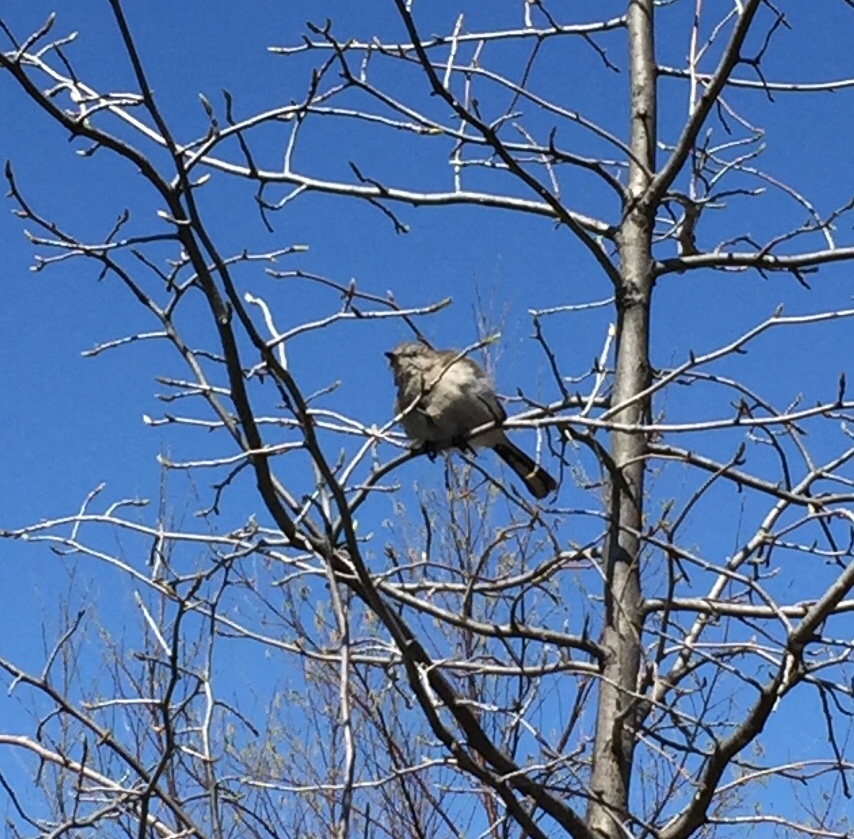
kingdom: Animalia
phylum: Chordata
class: Aves
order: Passeriformes
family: Mimidae
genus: Mimus
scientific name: Mimus polyglottos
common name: Northern mockingbird
